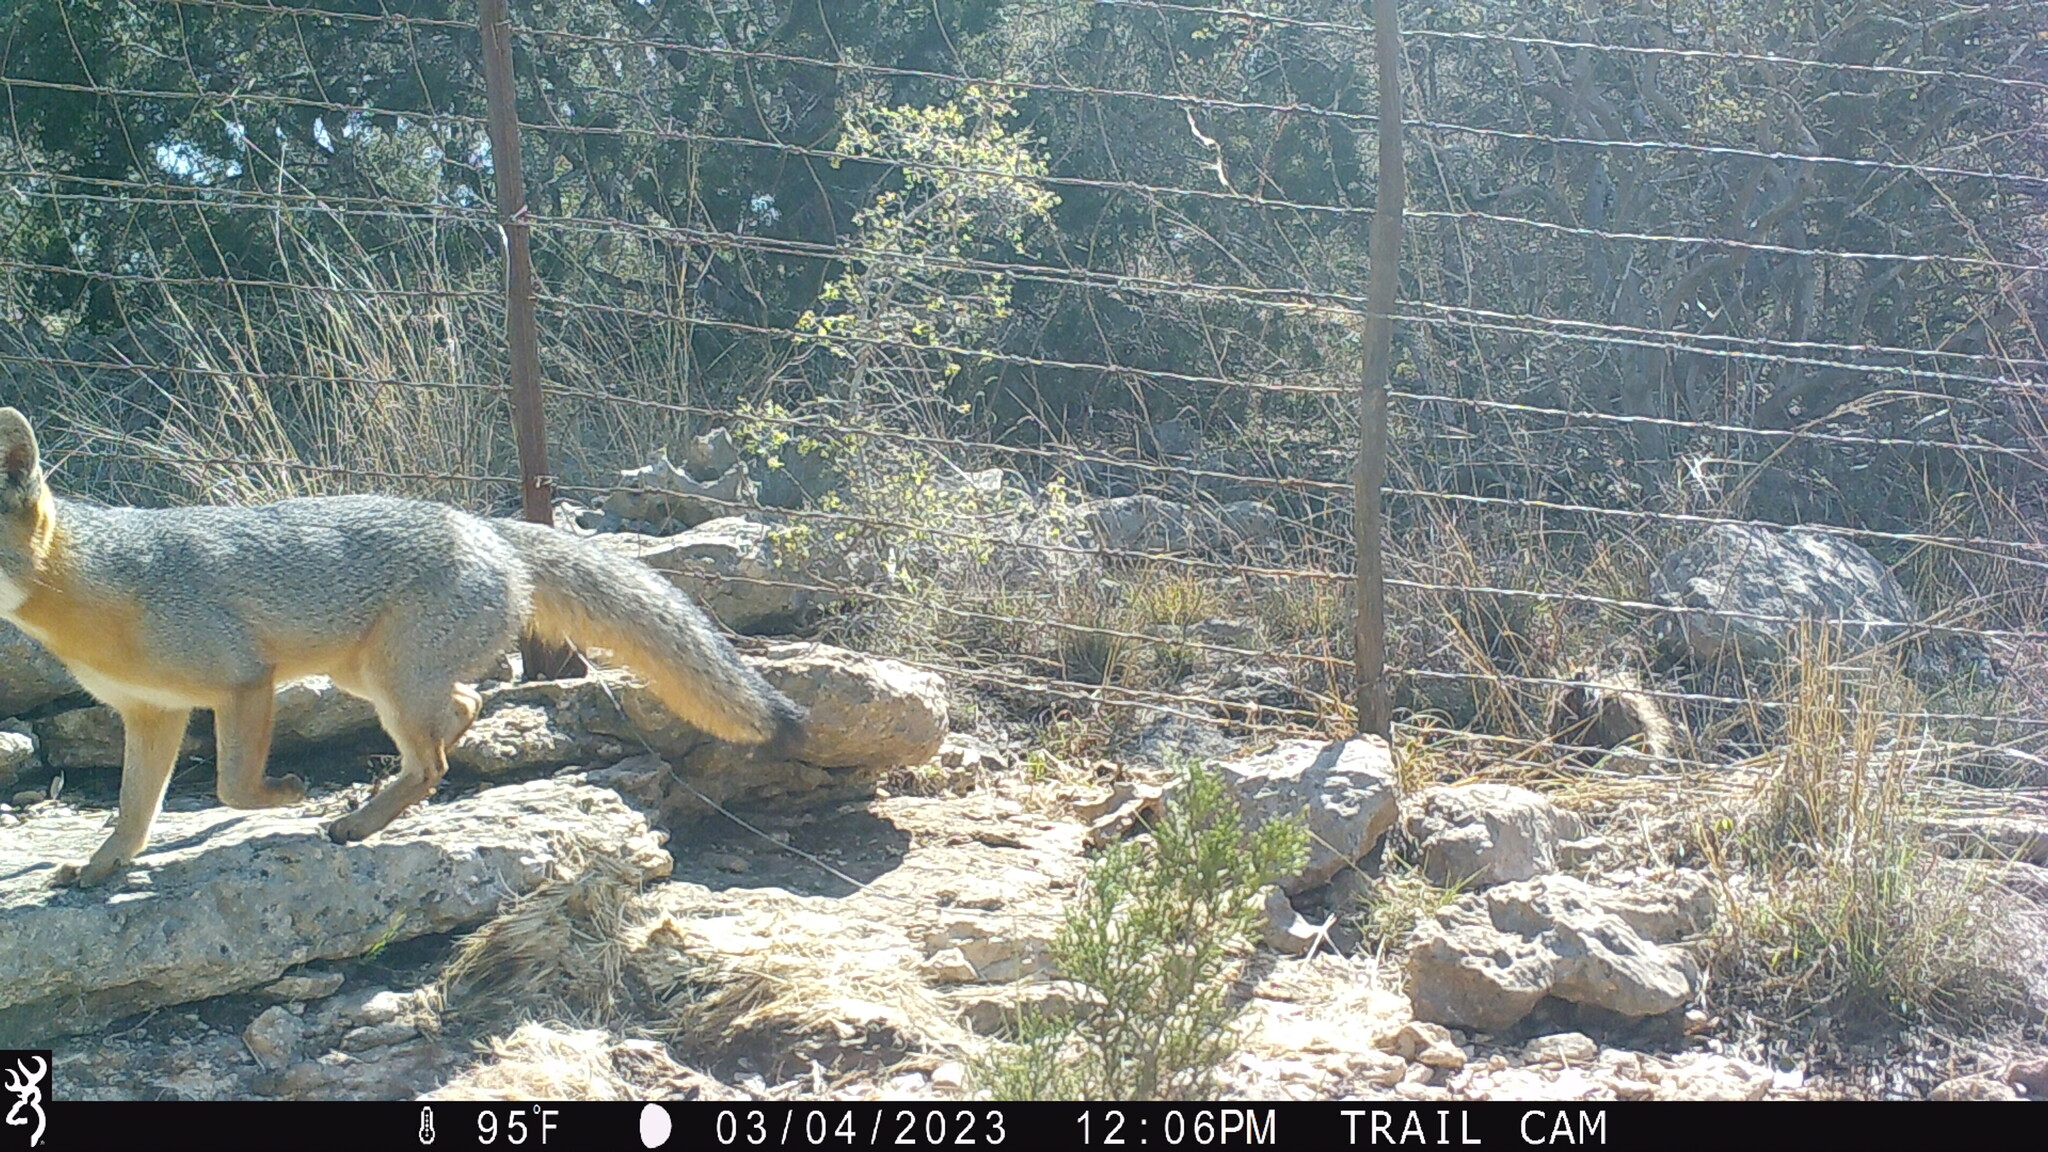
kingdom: Animalia
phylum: Chordata
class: Mammalia
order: Carnivora
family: Canidae
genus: Urocyon
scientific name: Urocyon cinereoargenteus
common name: Gray fox
